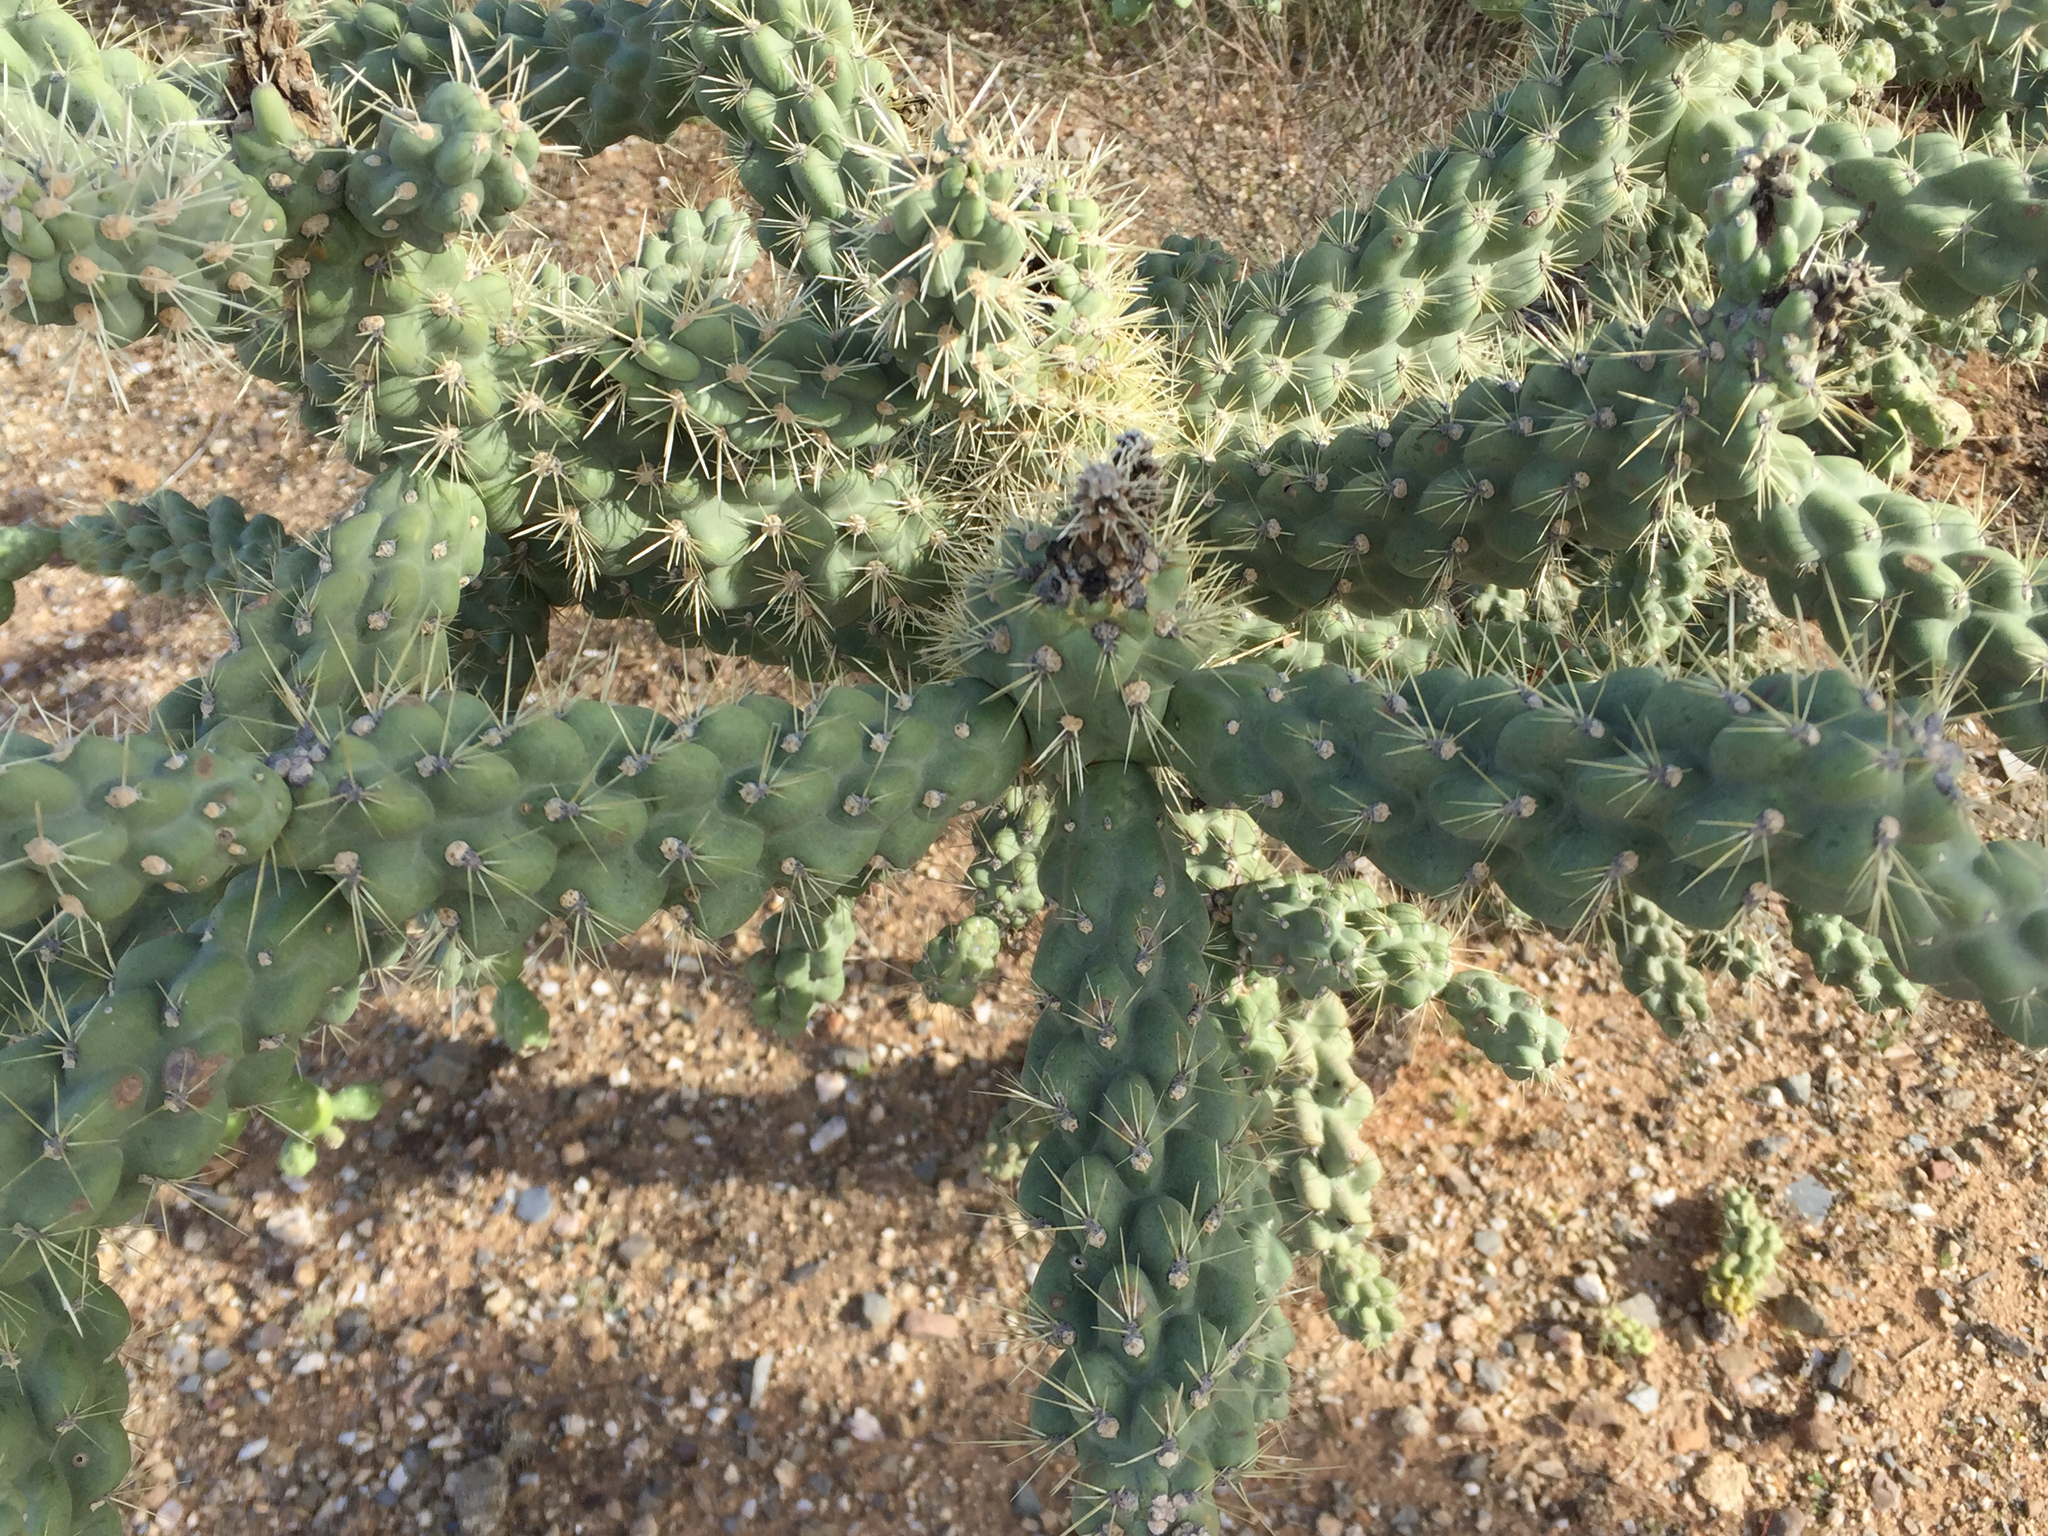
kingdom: Plantae
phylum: Tracheophyta
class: Magnoliopsida
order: Caryophyllales
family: Cactaceae
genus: Cylindropuntia
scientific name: Cylindropuntia fulgida
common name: Jumping cholla
